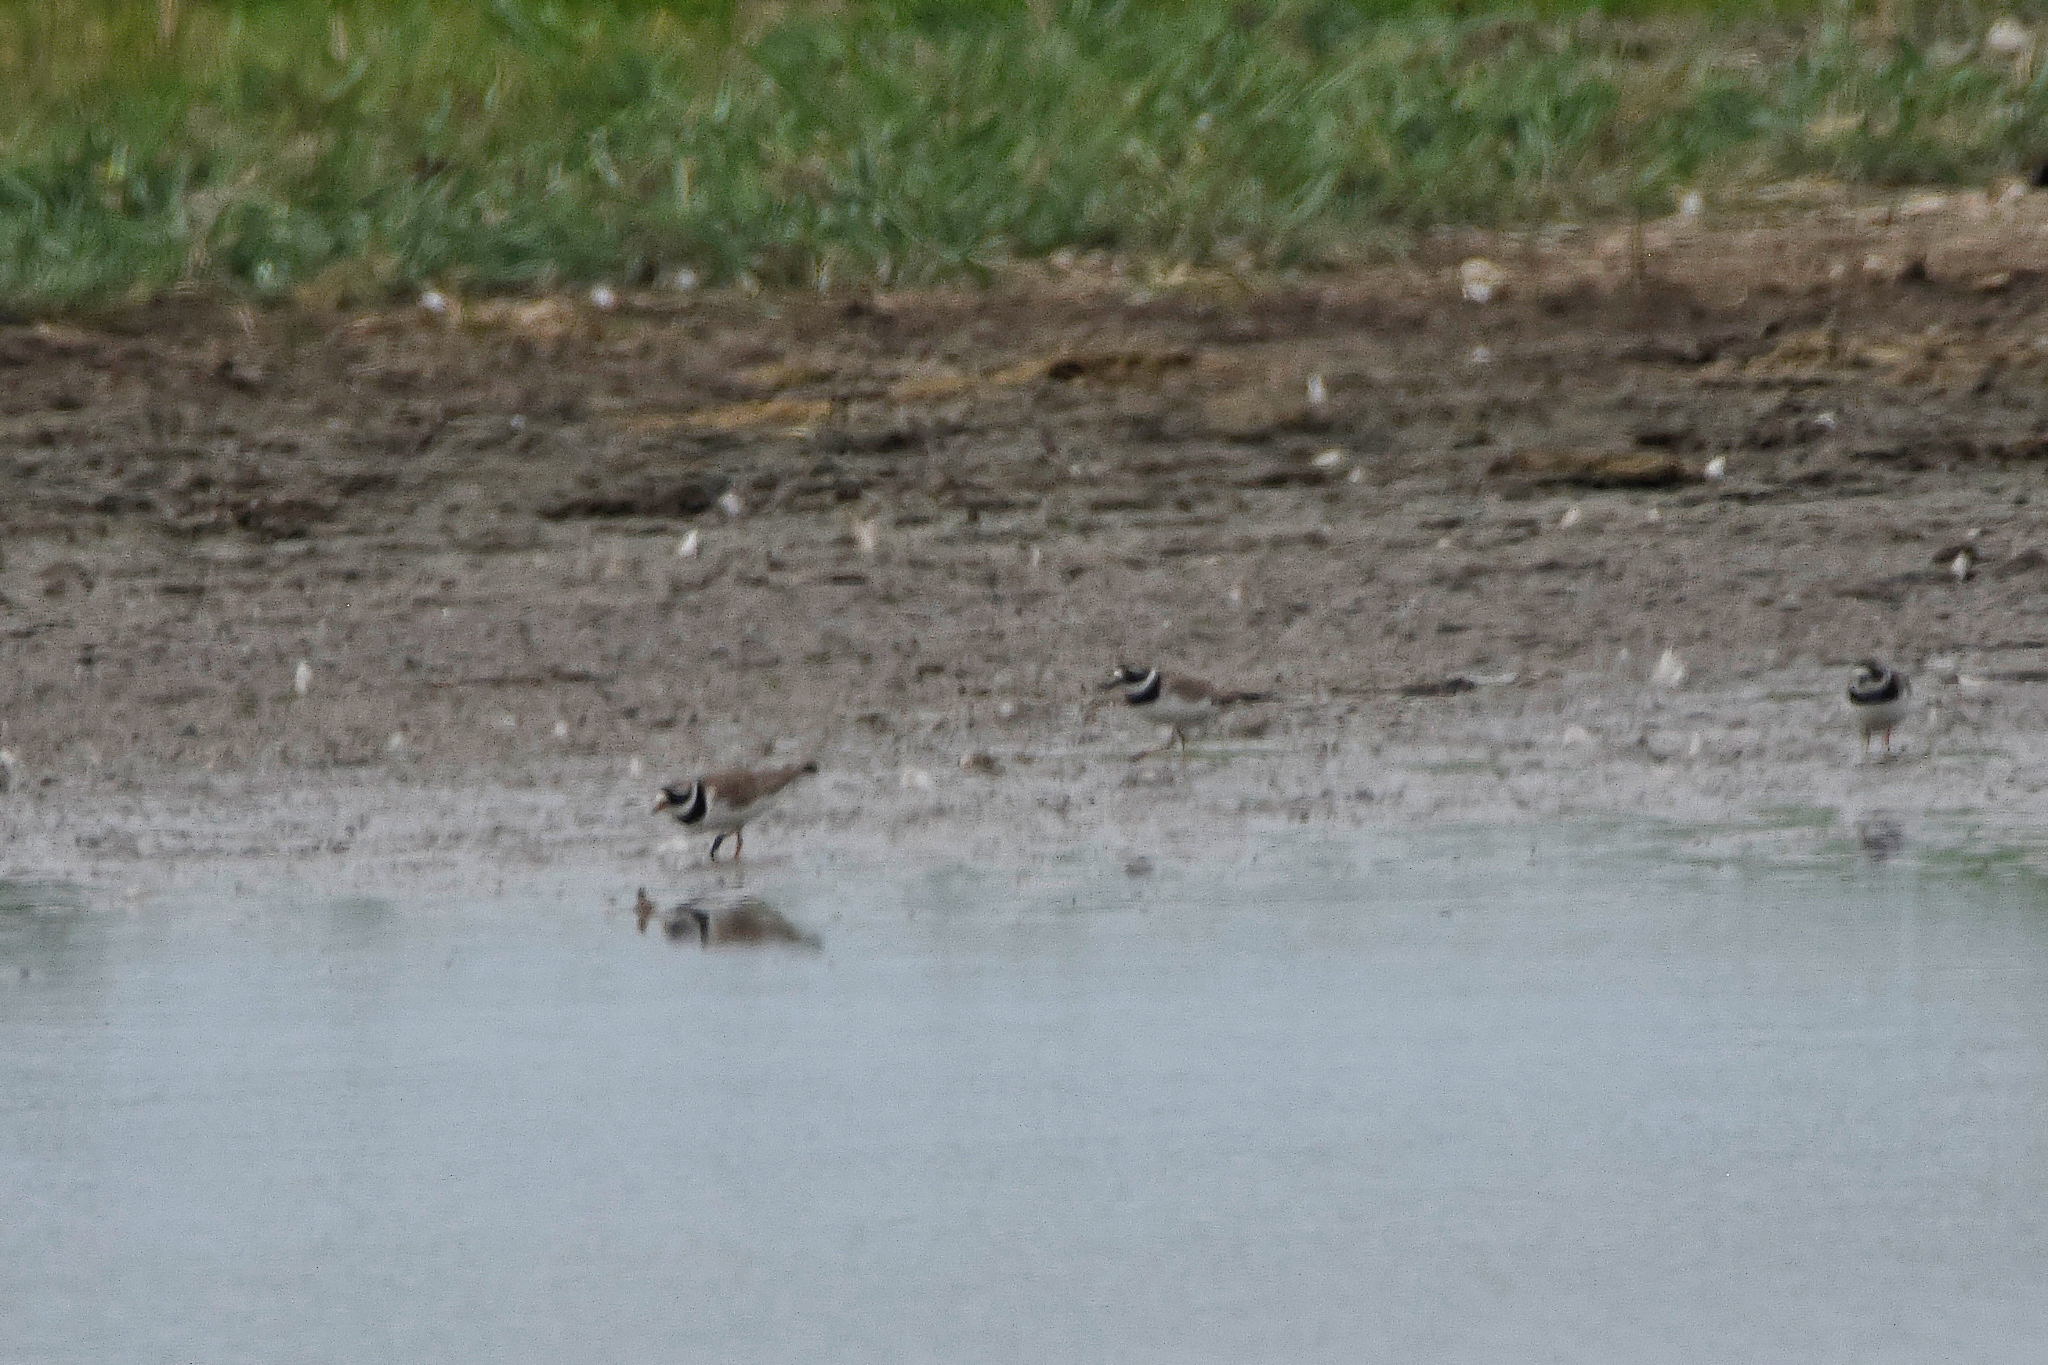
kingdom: Animalia
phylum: Chordata
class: Aves
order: Charadriiformes
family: Charadriidae
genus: Charadrius
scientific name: Charadrius hiaticula
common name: Common ringed plover
